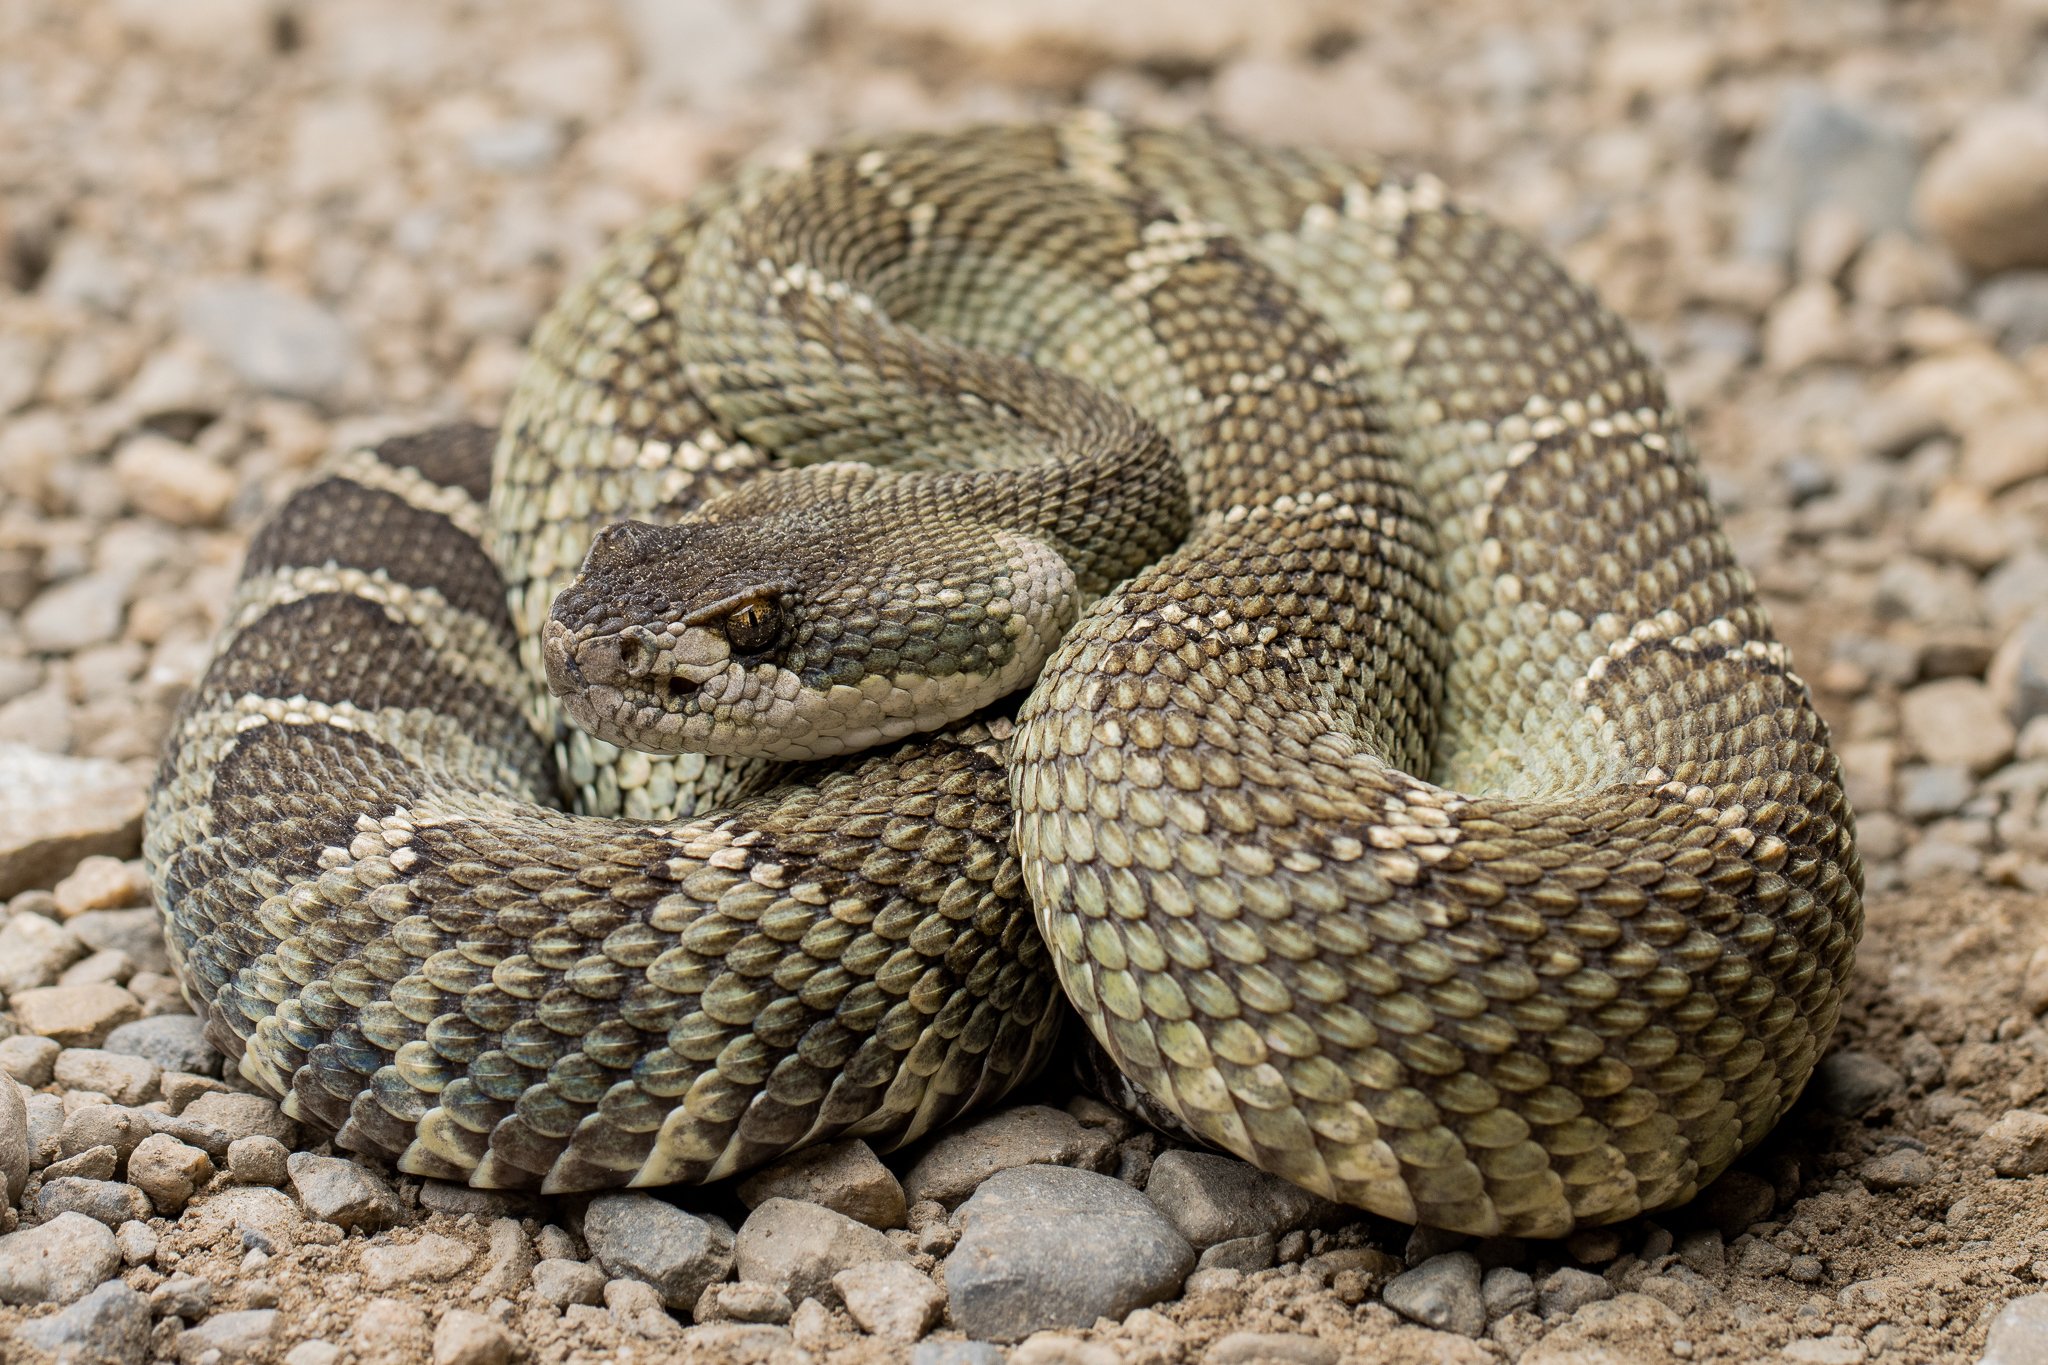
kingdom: Animalia
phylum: Chordata
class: Squamata
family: Viperidae
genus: Crotalus
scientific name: Crotalus oreganus
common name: Abyssus
